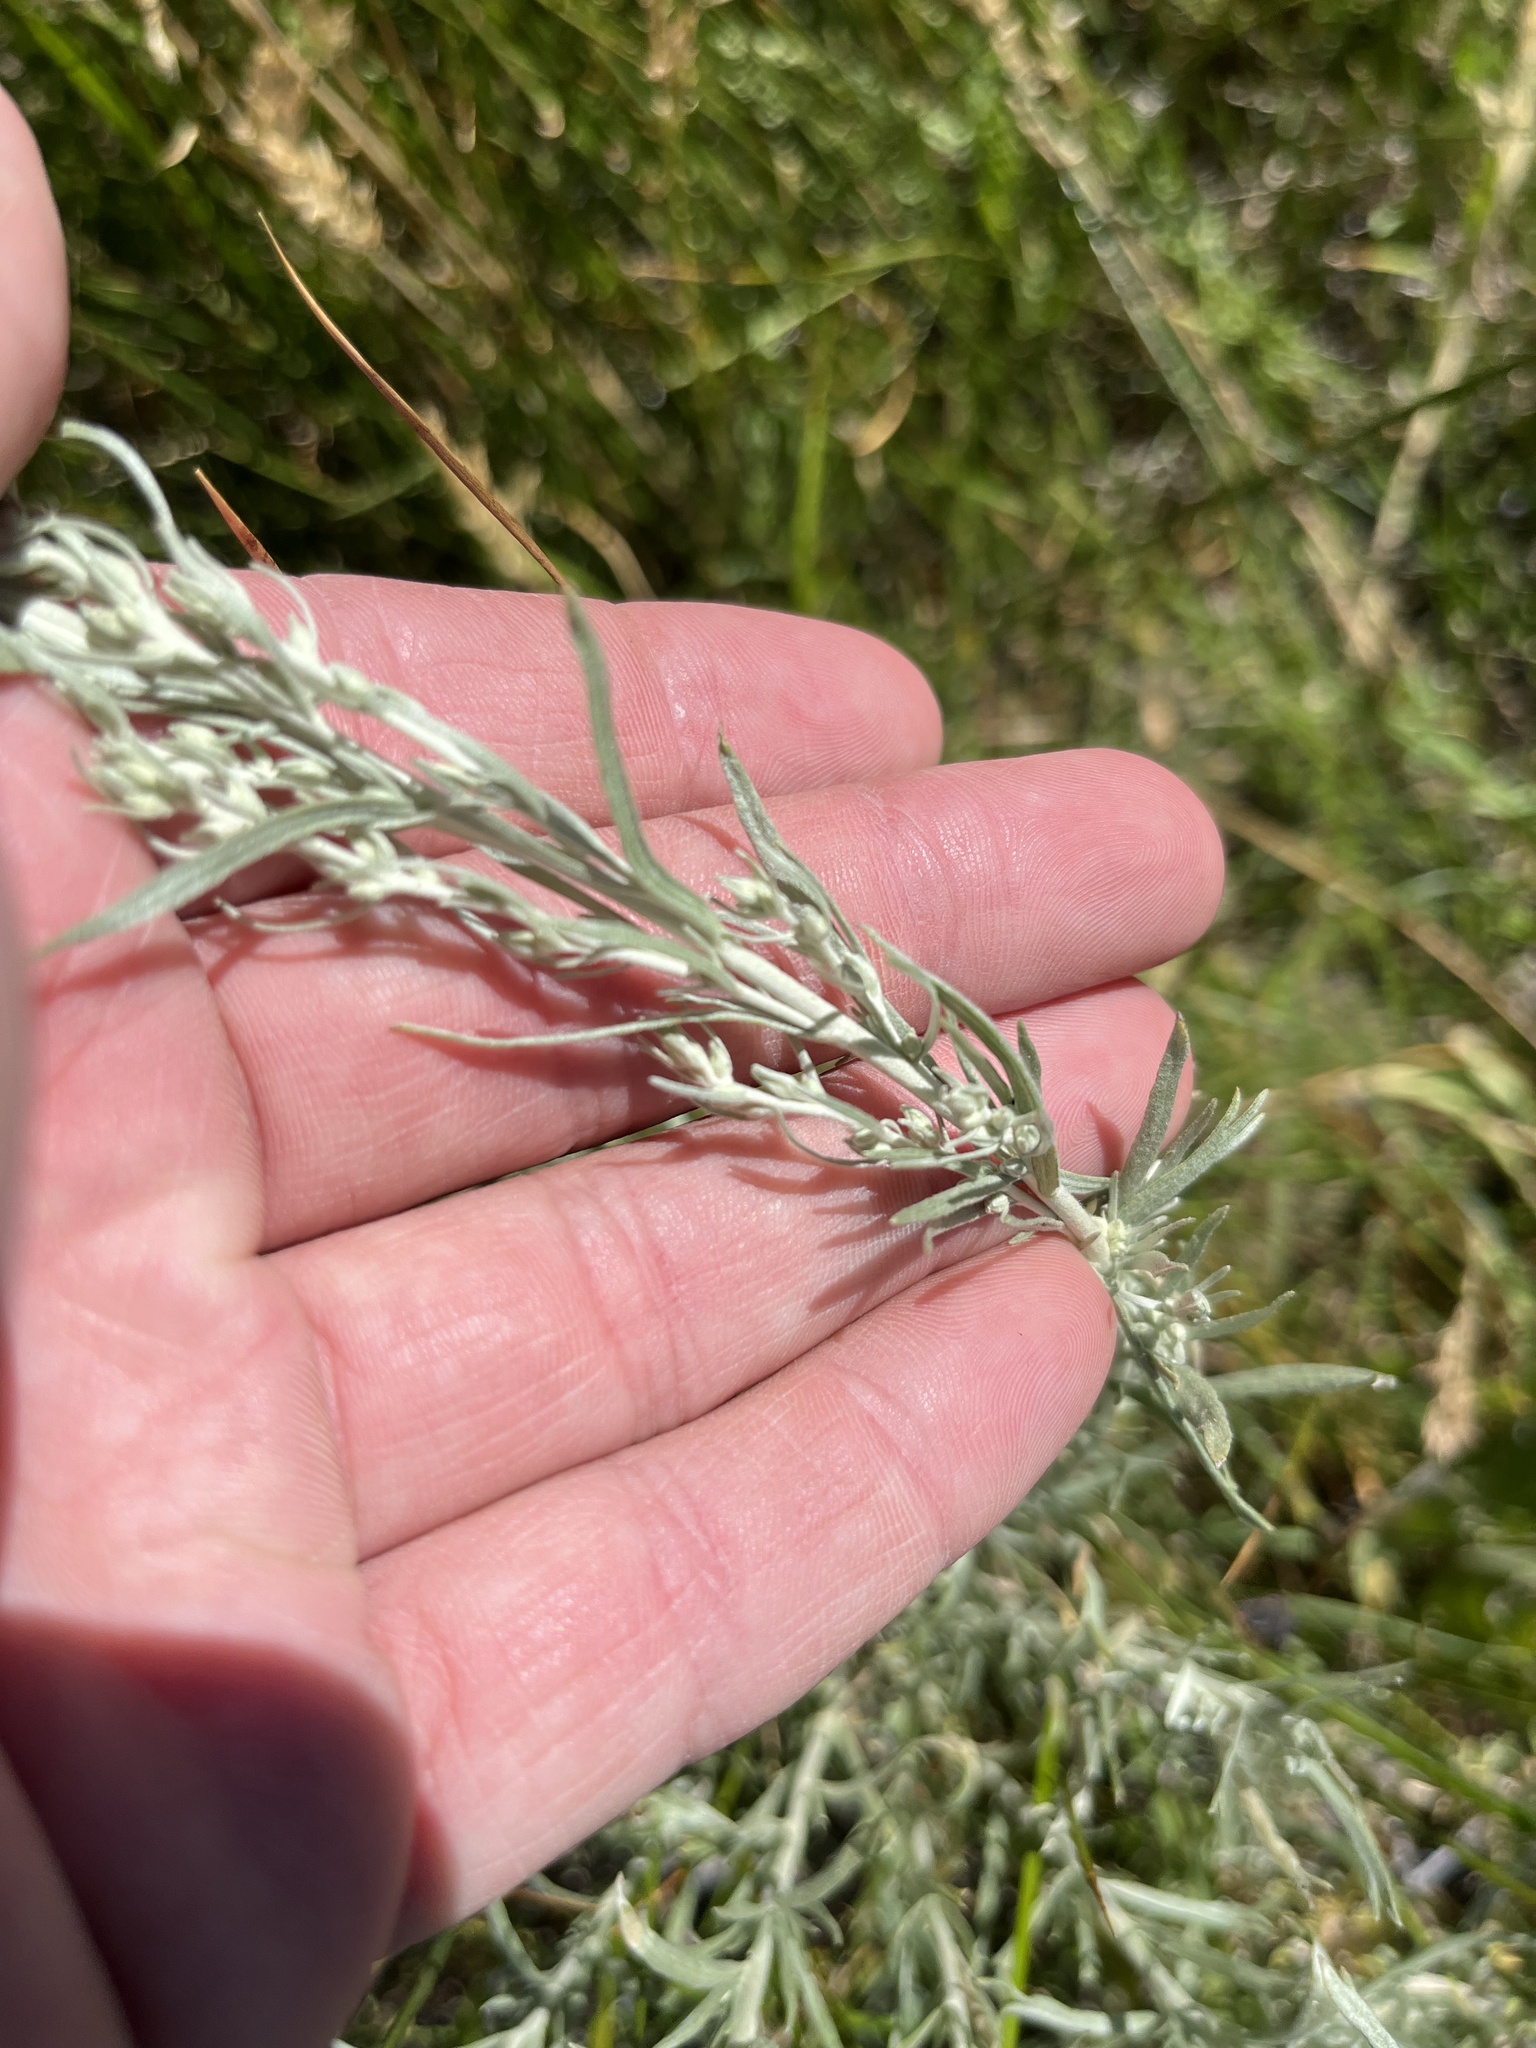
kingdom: Plantae
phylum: Tracheophyta
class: Magnoliopsida
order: Asterales
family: Asteraceae
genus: Artemisia
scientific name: Artemisia cana
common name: Silver sagebrush
